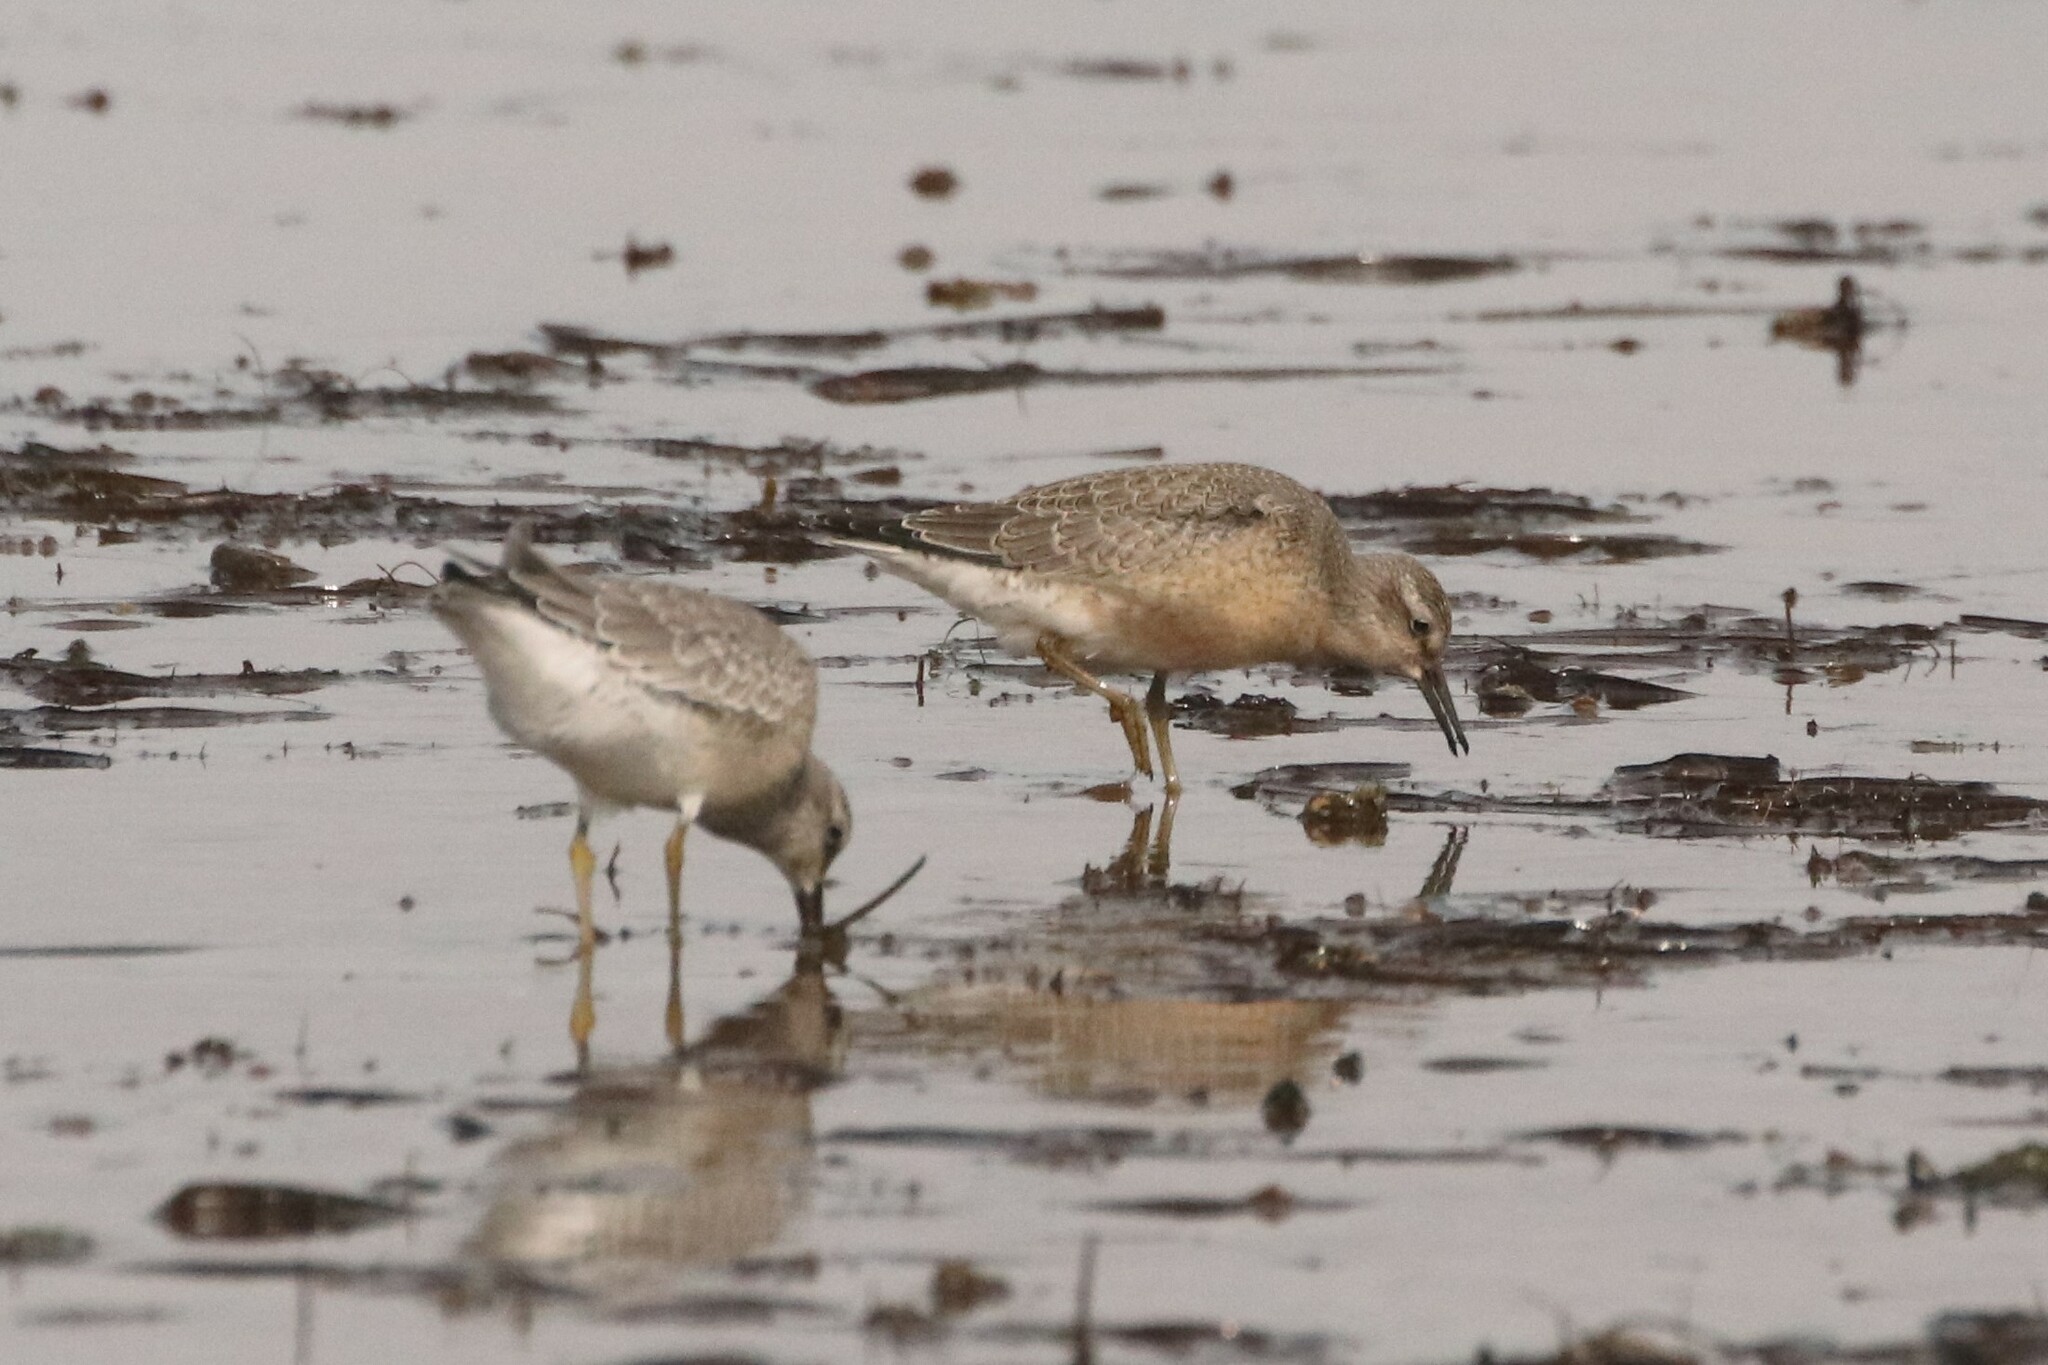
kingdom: Animalia
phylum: Chordata
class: Aves
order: Charadriiformes
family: Scolopacidae
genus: Calidris
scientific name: Calidris canutus
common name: Red knot
